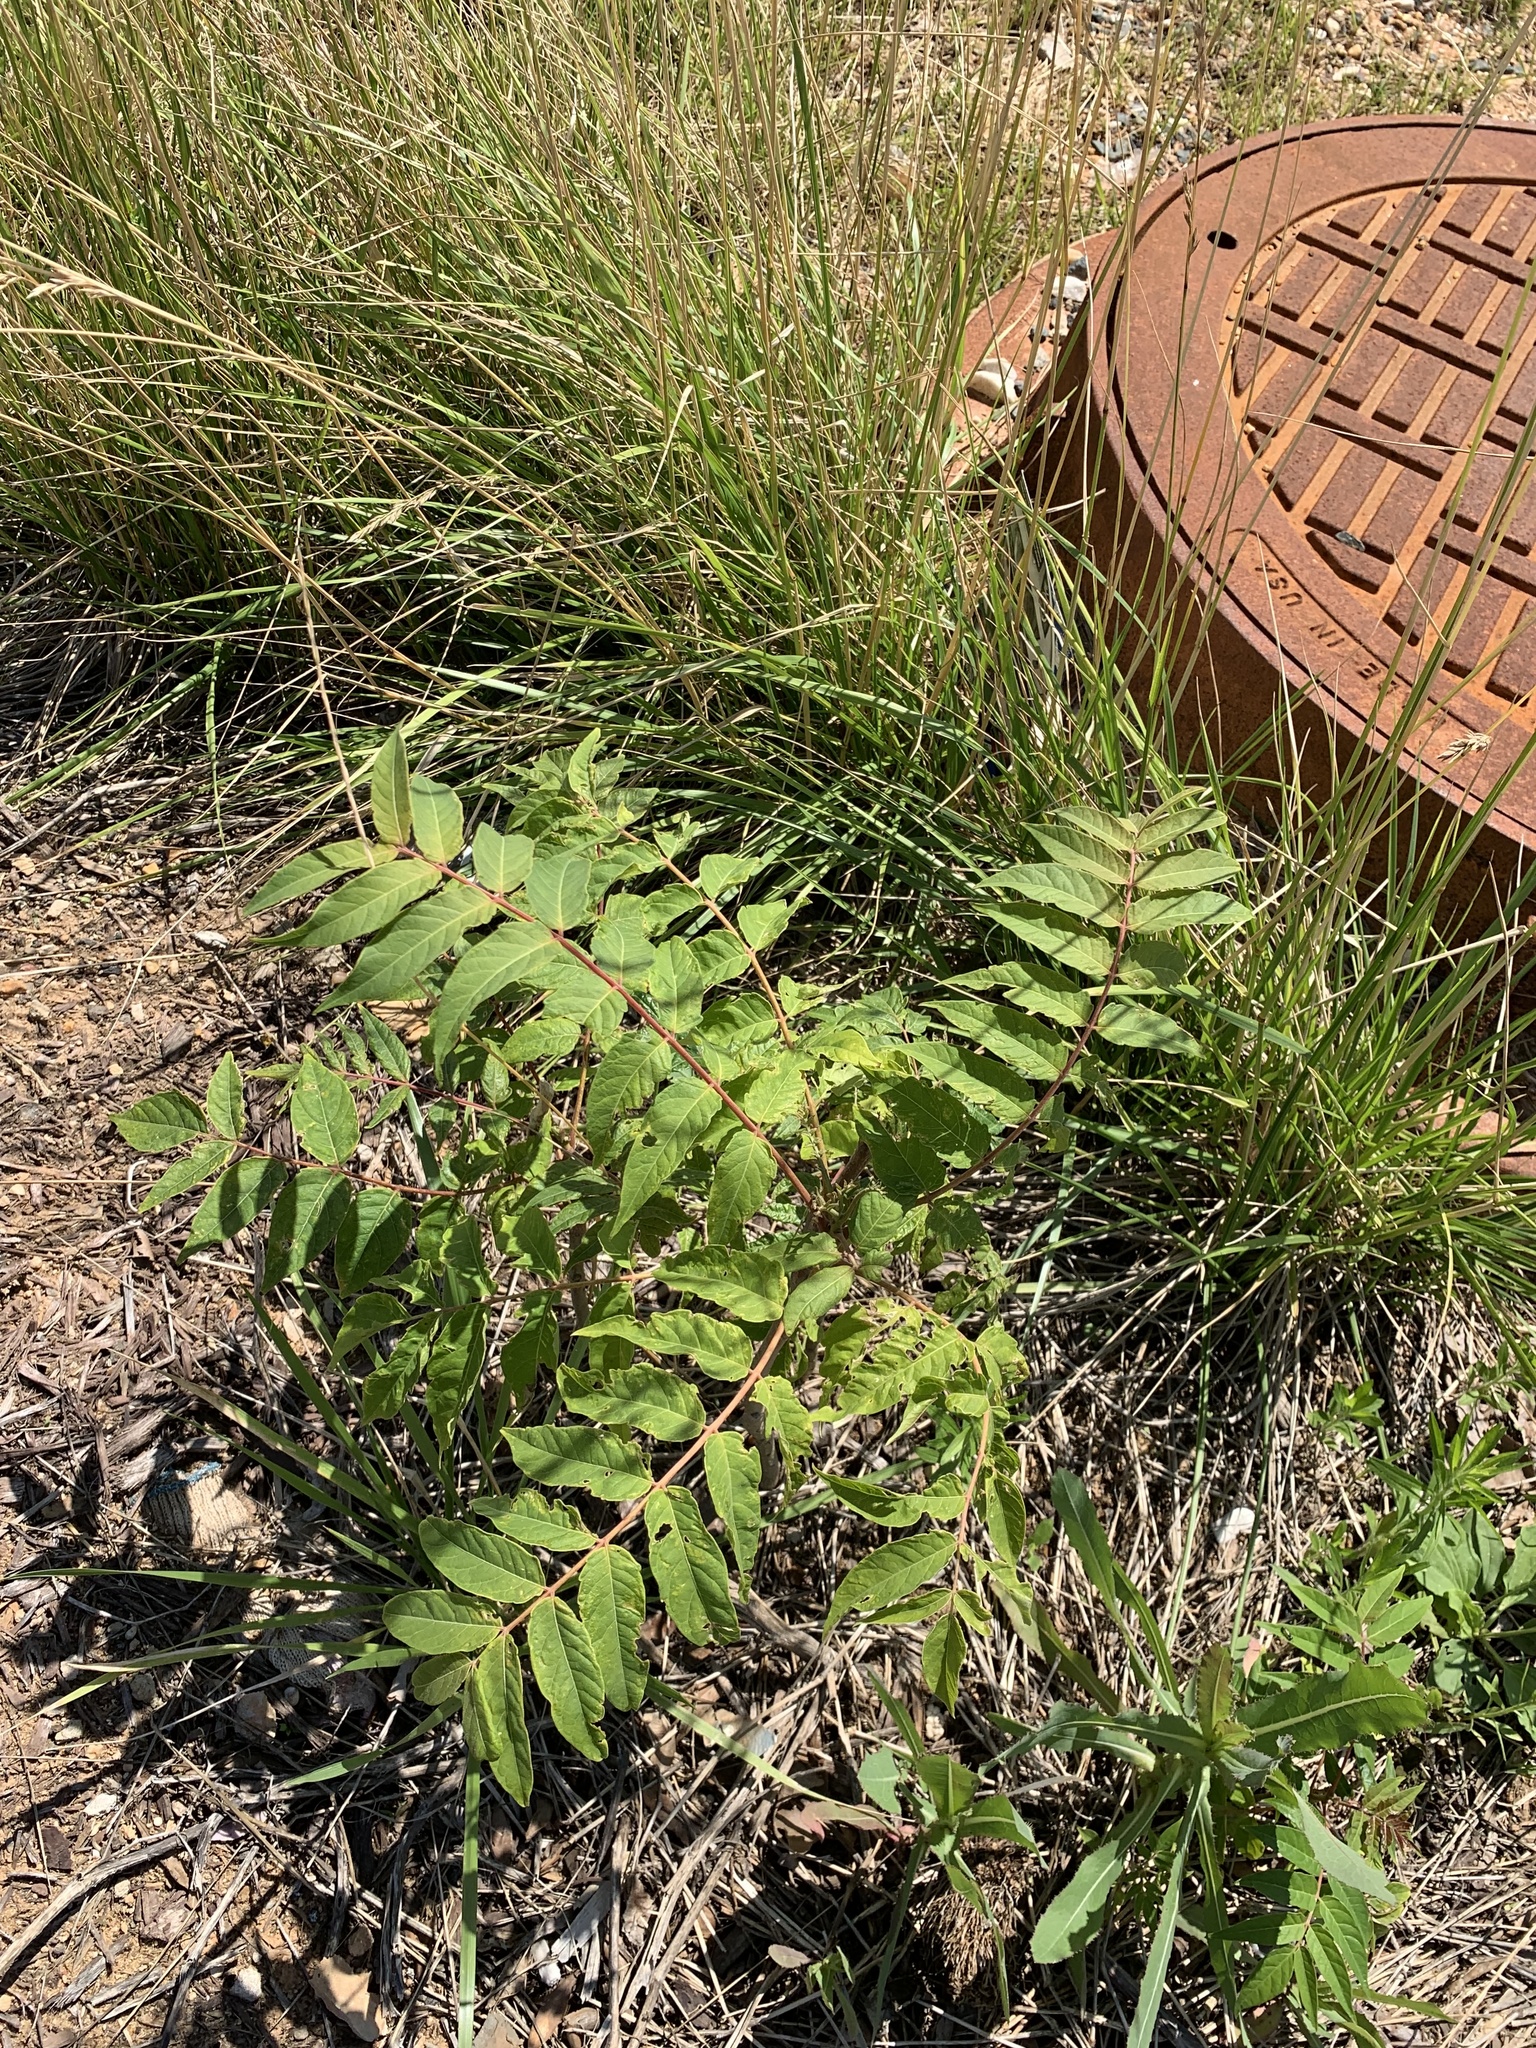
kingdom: Plantae
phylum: Tracheophyta
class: Magnoliopsida
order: Sapindales
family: Simaroubaceae
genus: Ailanthus
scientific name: Ailanthus altissima
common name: Tree-of-heaven
